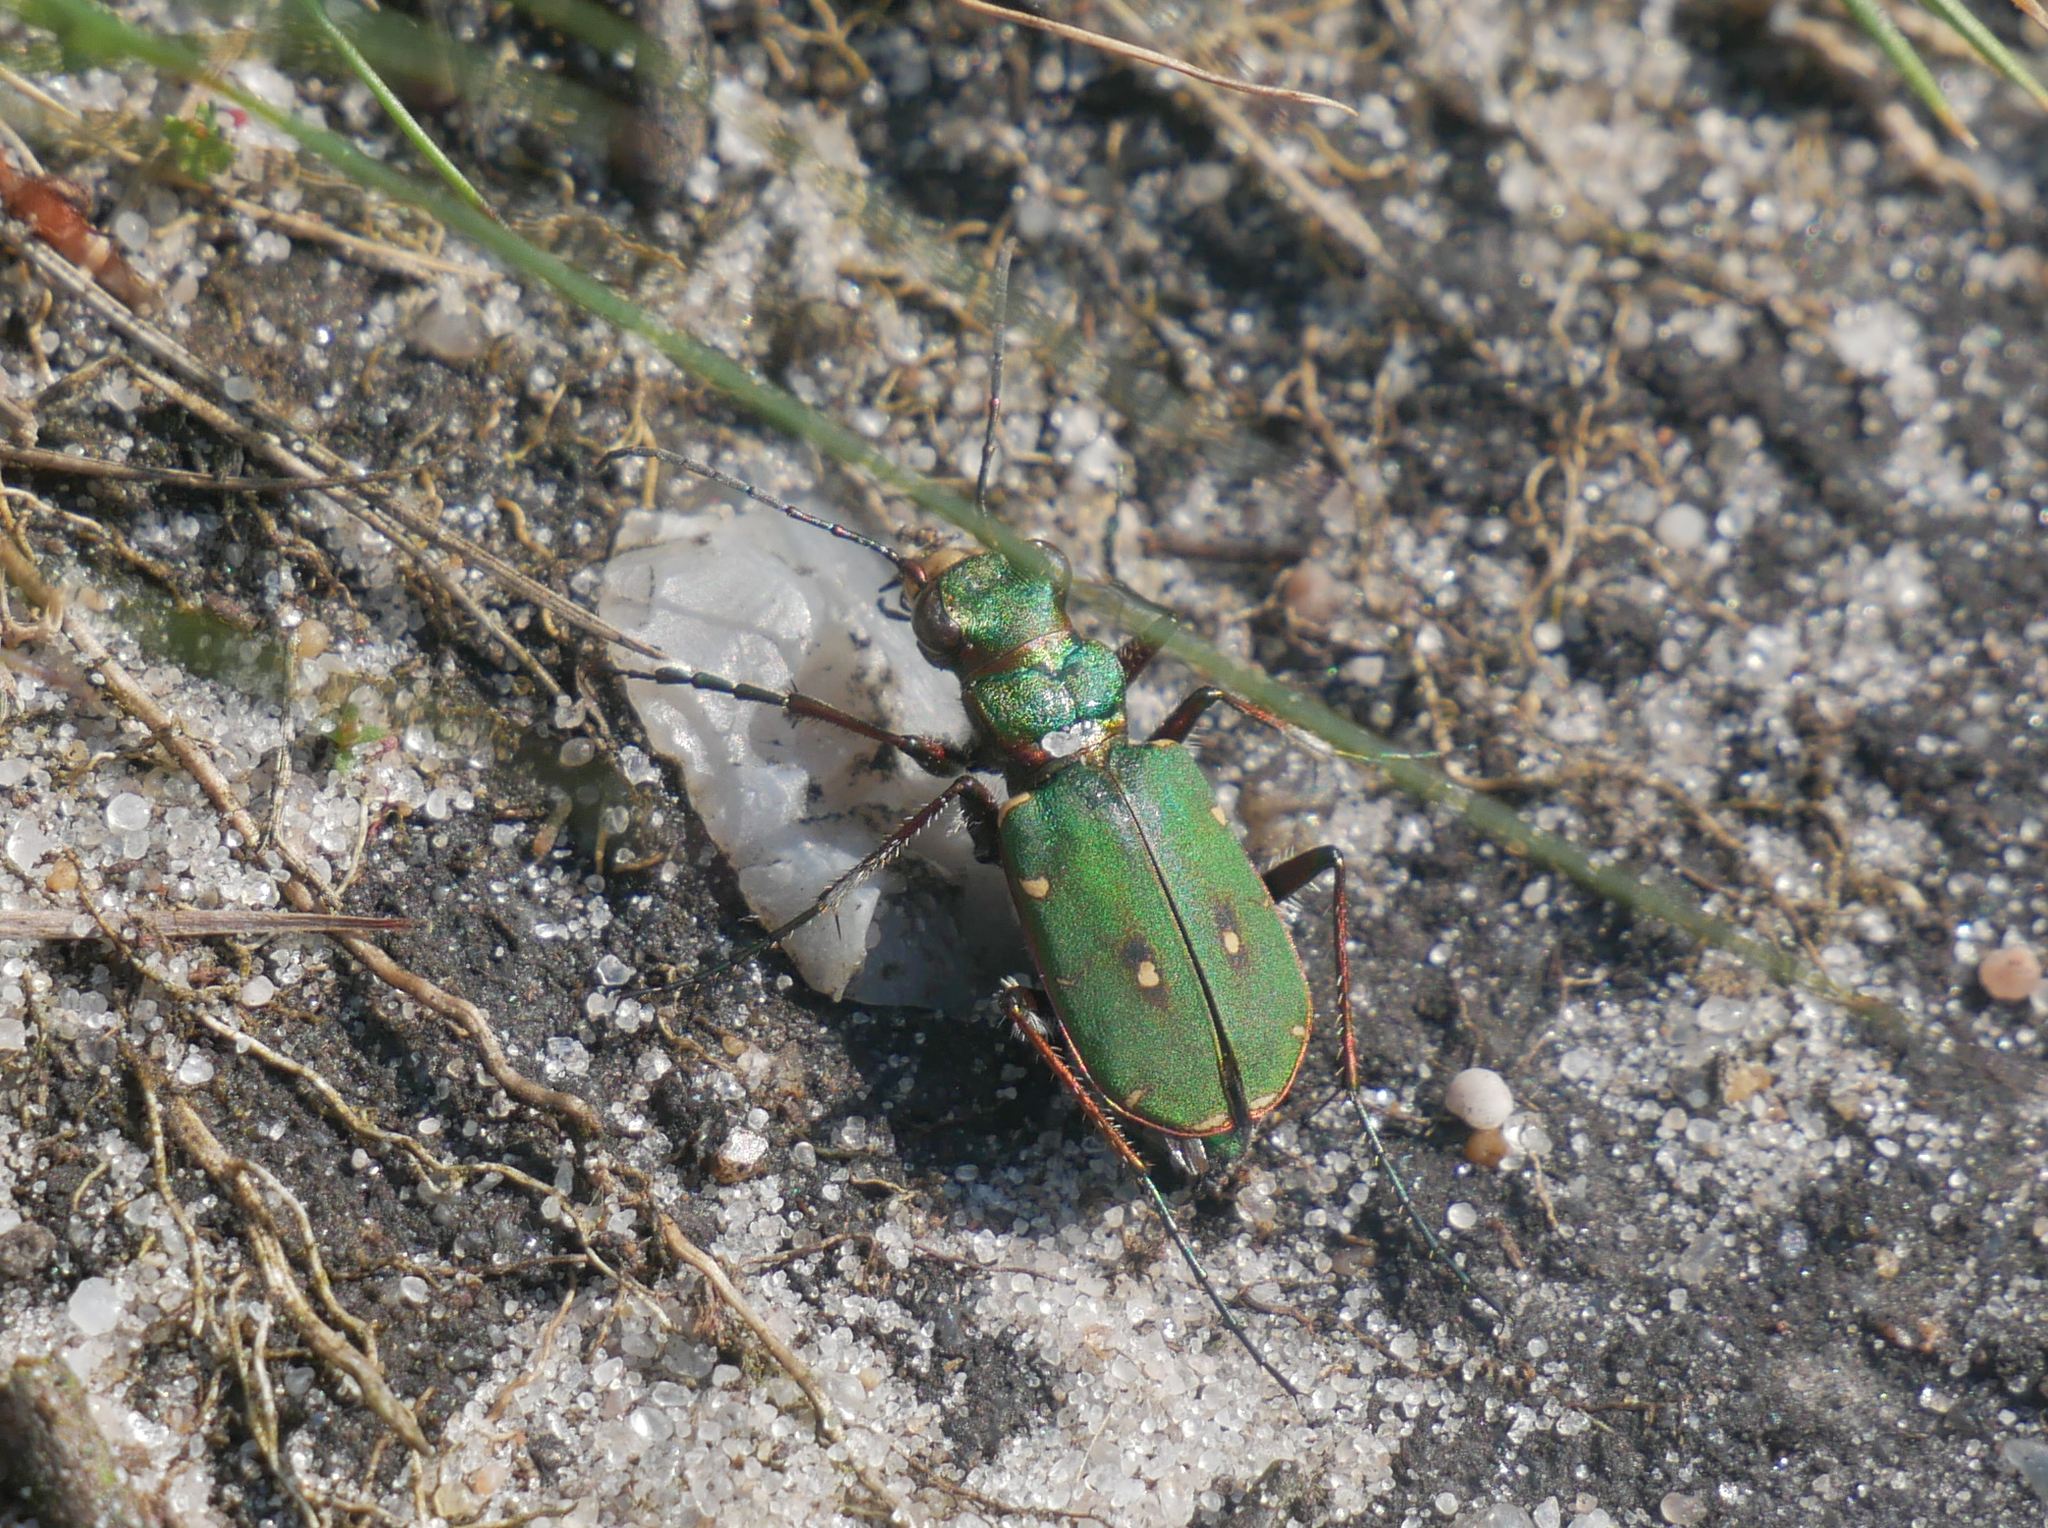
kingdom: Animalia
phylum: Arthropoda
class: Insecta
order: Coleoptera
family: Carabidae
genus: Cicindela
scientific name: Cicindela campestris
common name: Common tiger beetle
